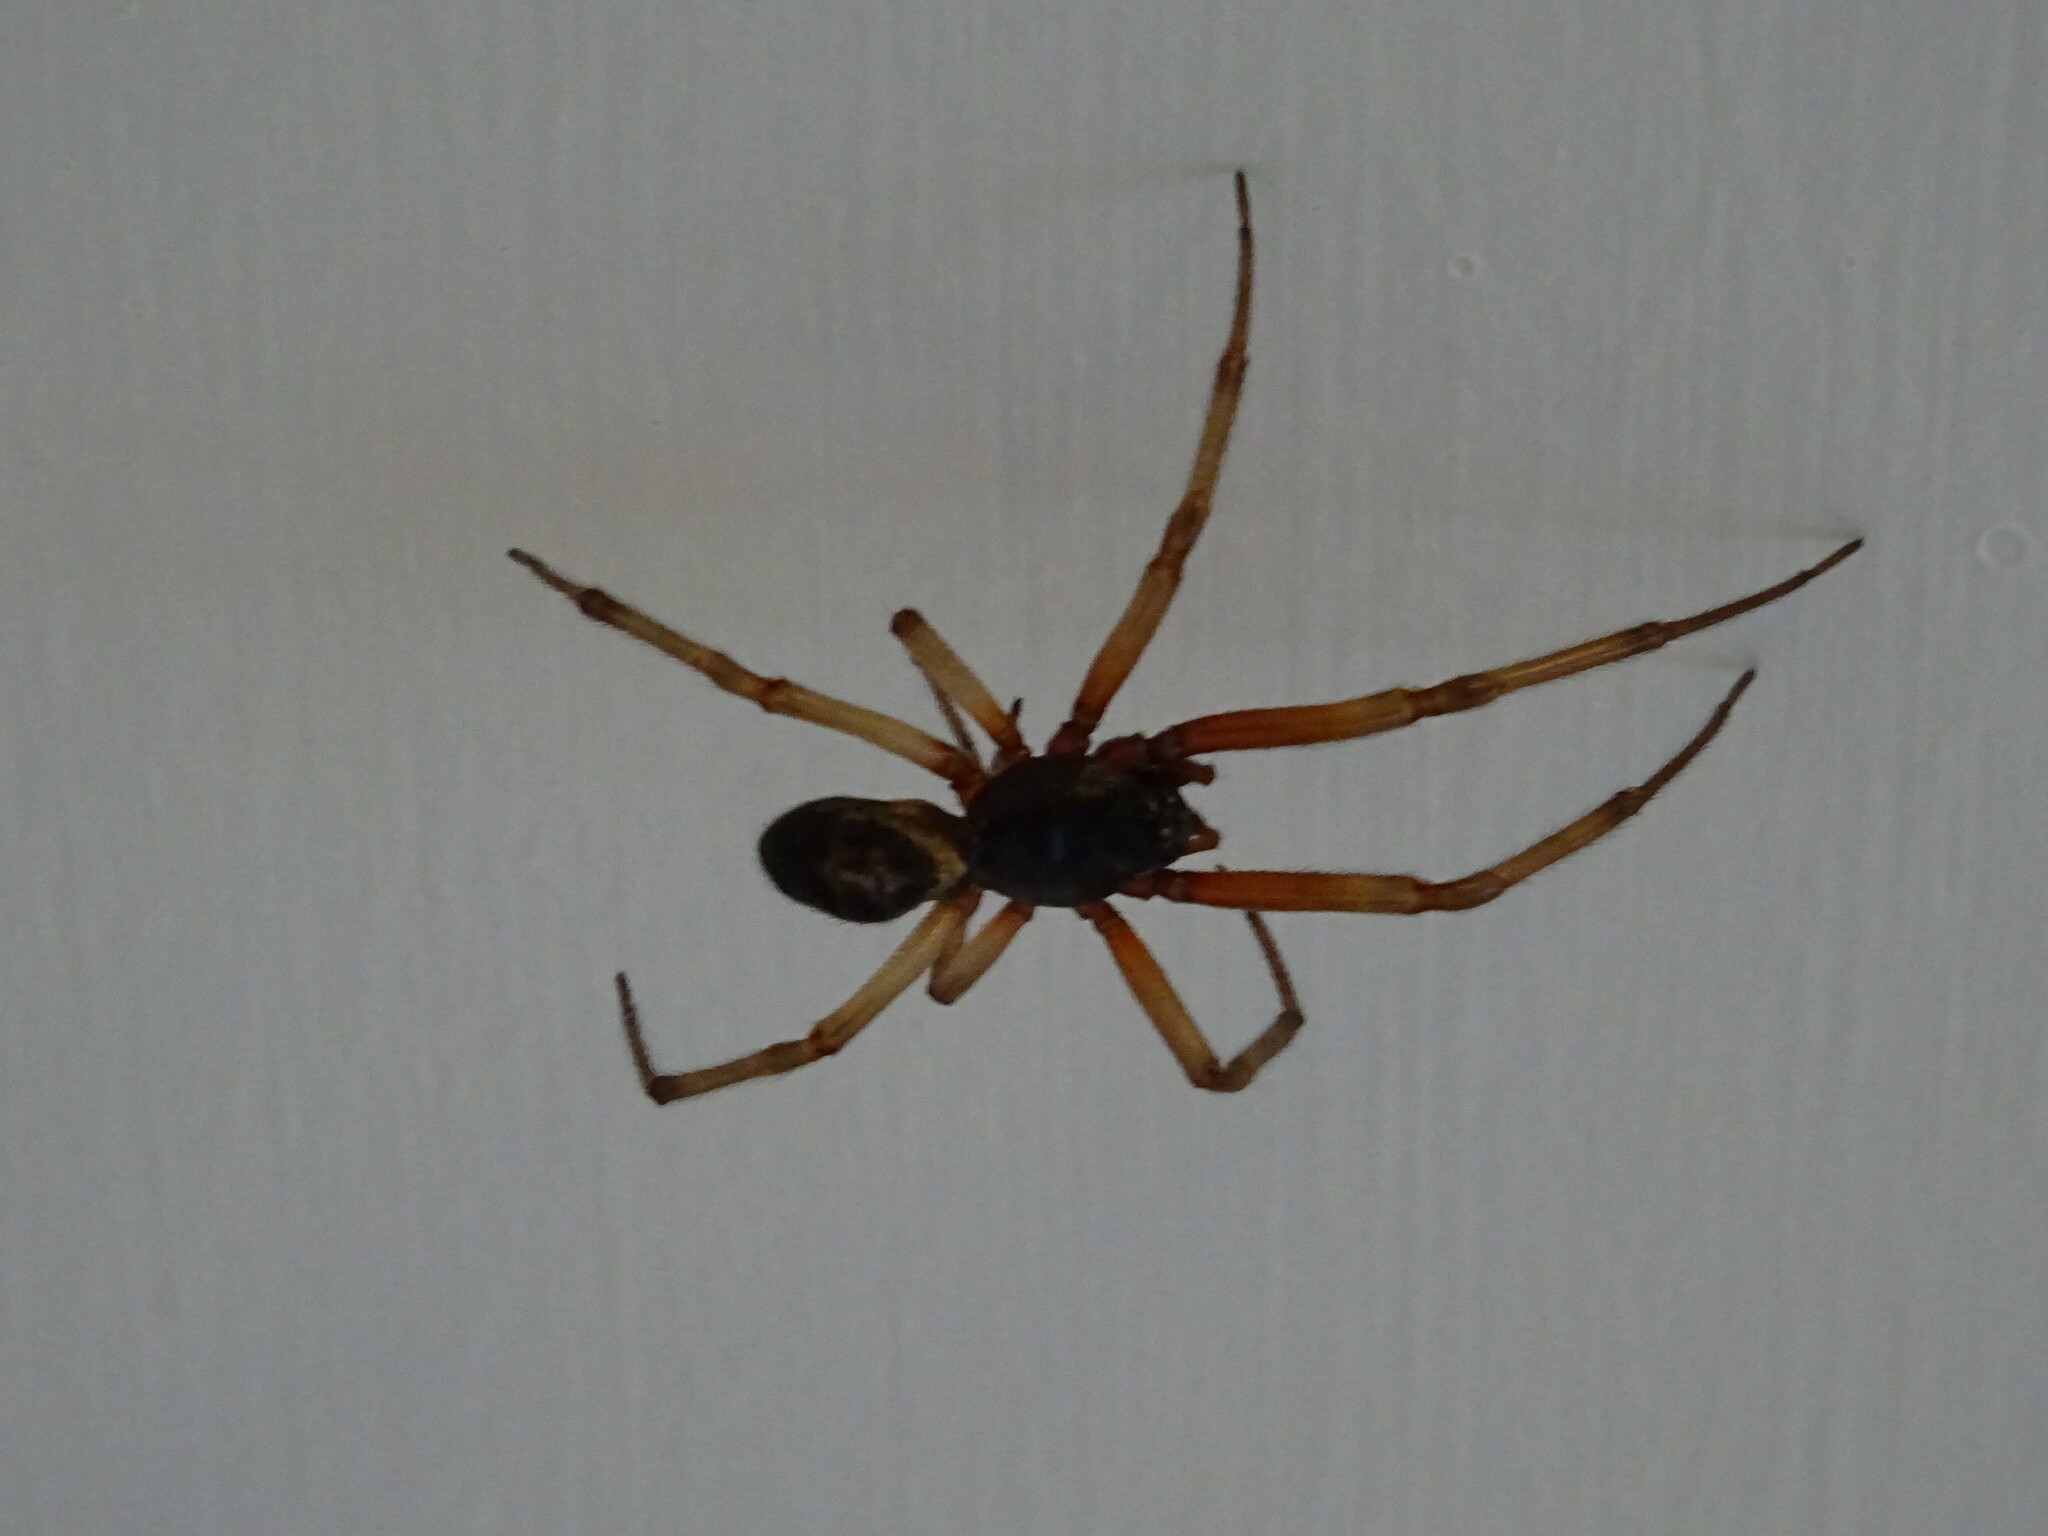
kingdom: Animalia
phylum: Arthropoda
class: Arachnida
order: Araneae
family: Theridiidae
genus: Steatoda
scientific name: Steatoda nobilis
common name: Cobweb weaver
